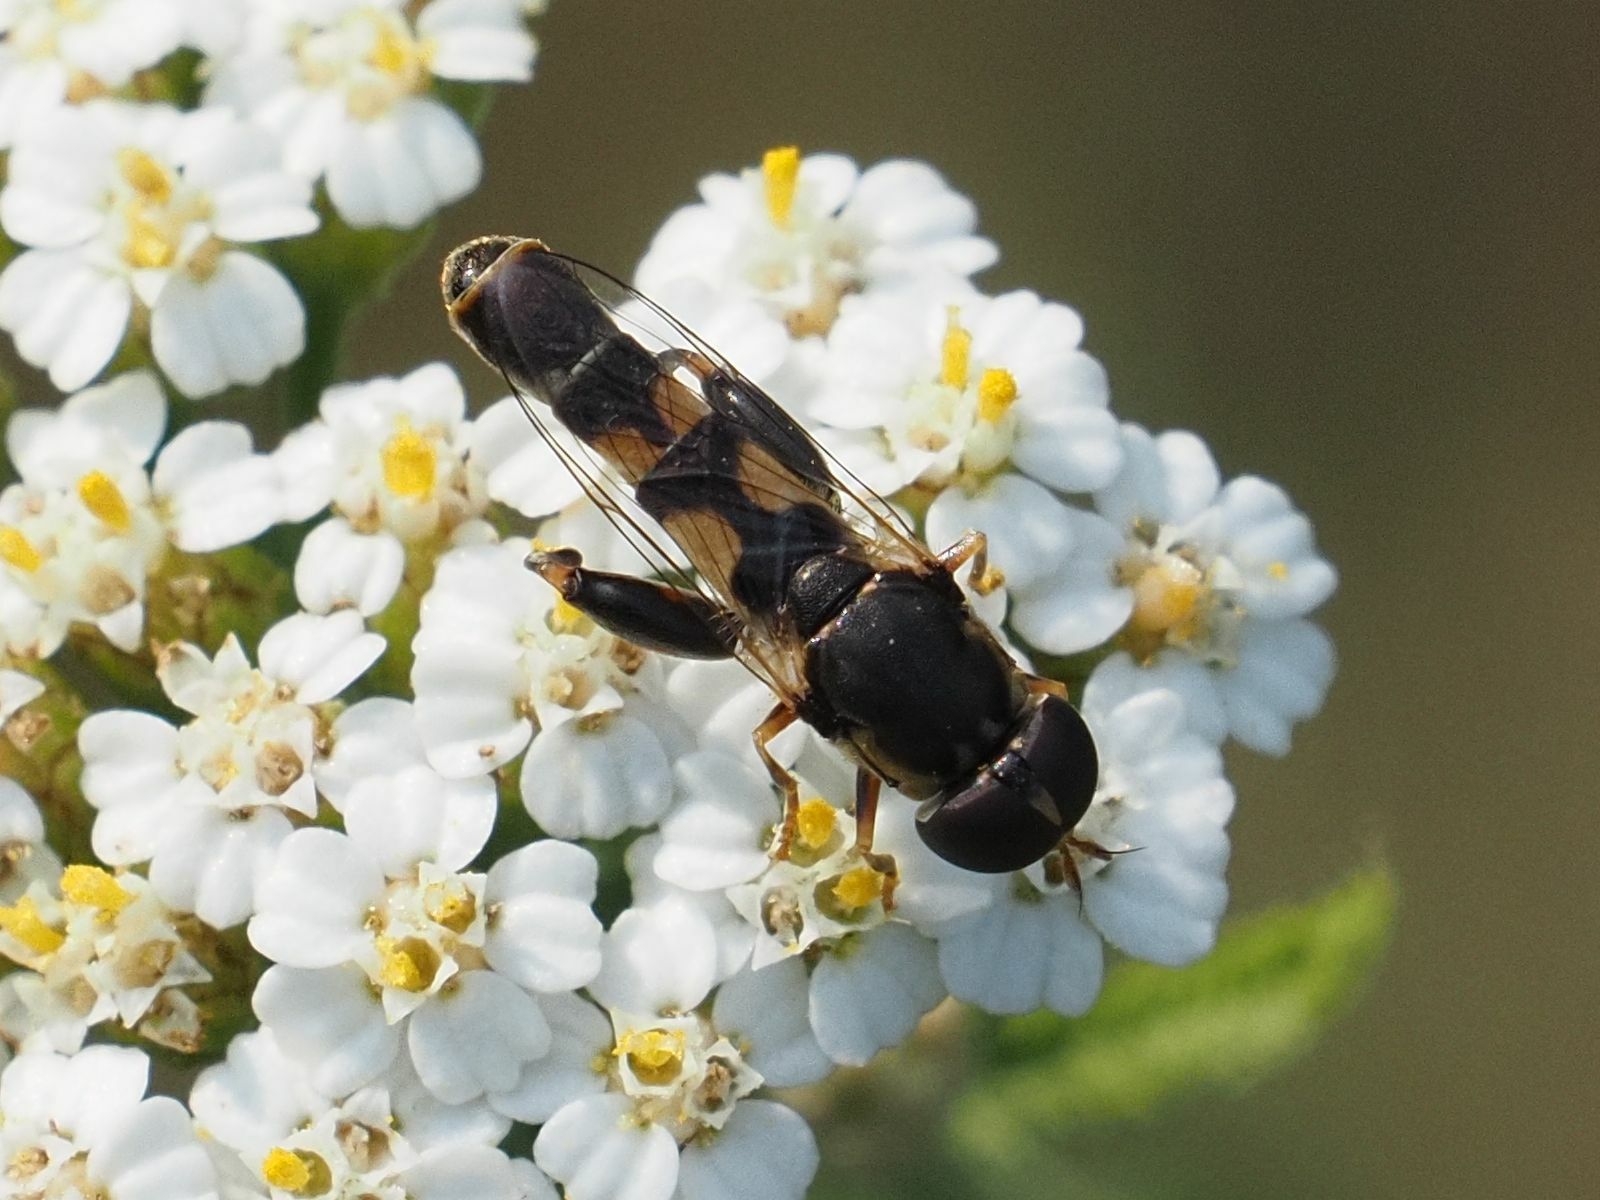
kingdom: Animalia
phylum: Arthropoda
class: Insecta
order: Diptera
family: Syrphidae
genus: Syritta
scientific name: Syritta pipiens
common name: Hover fly
